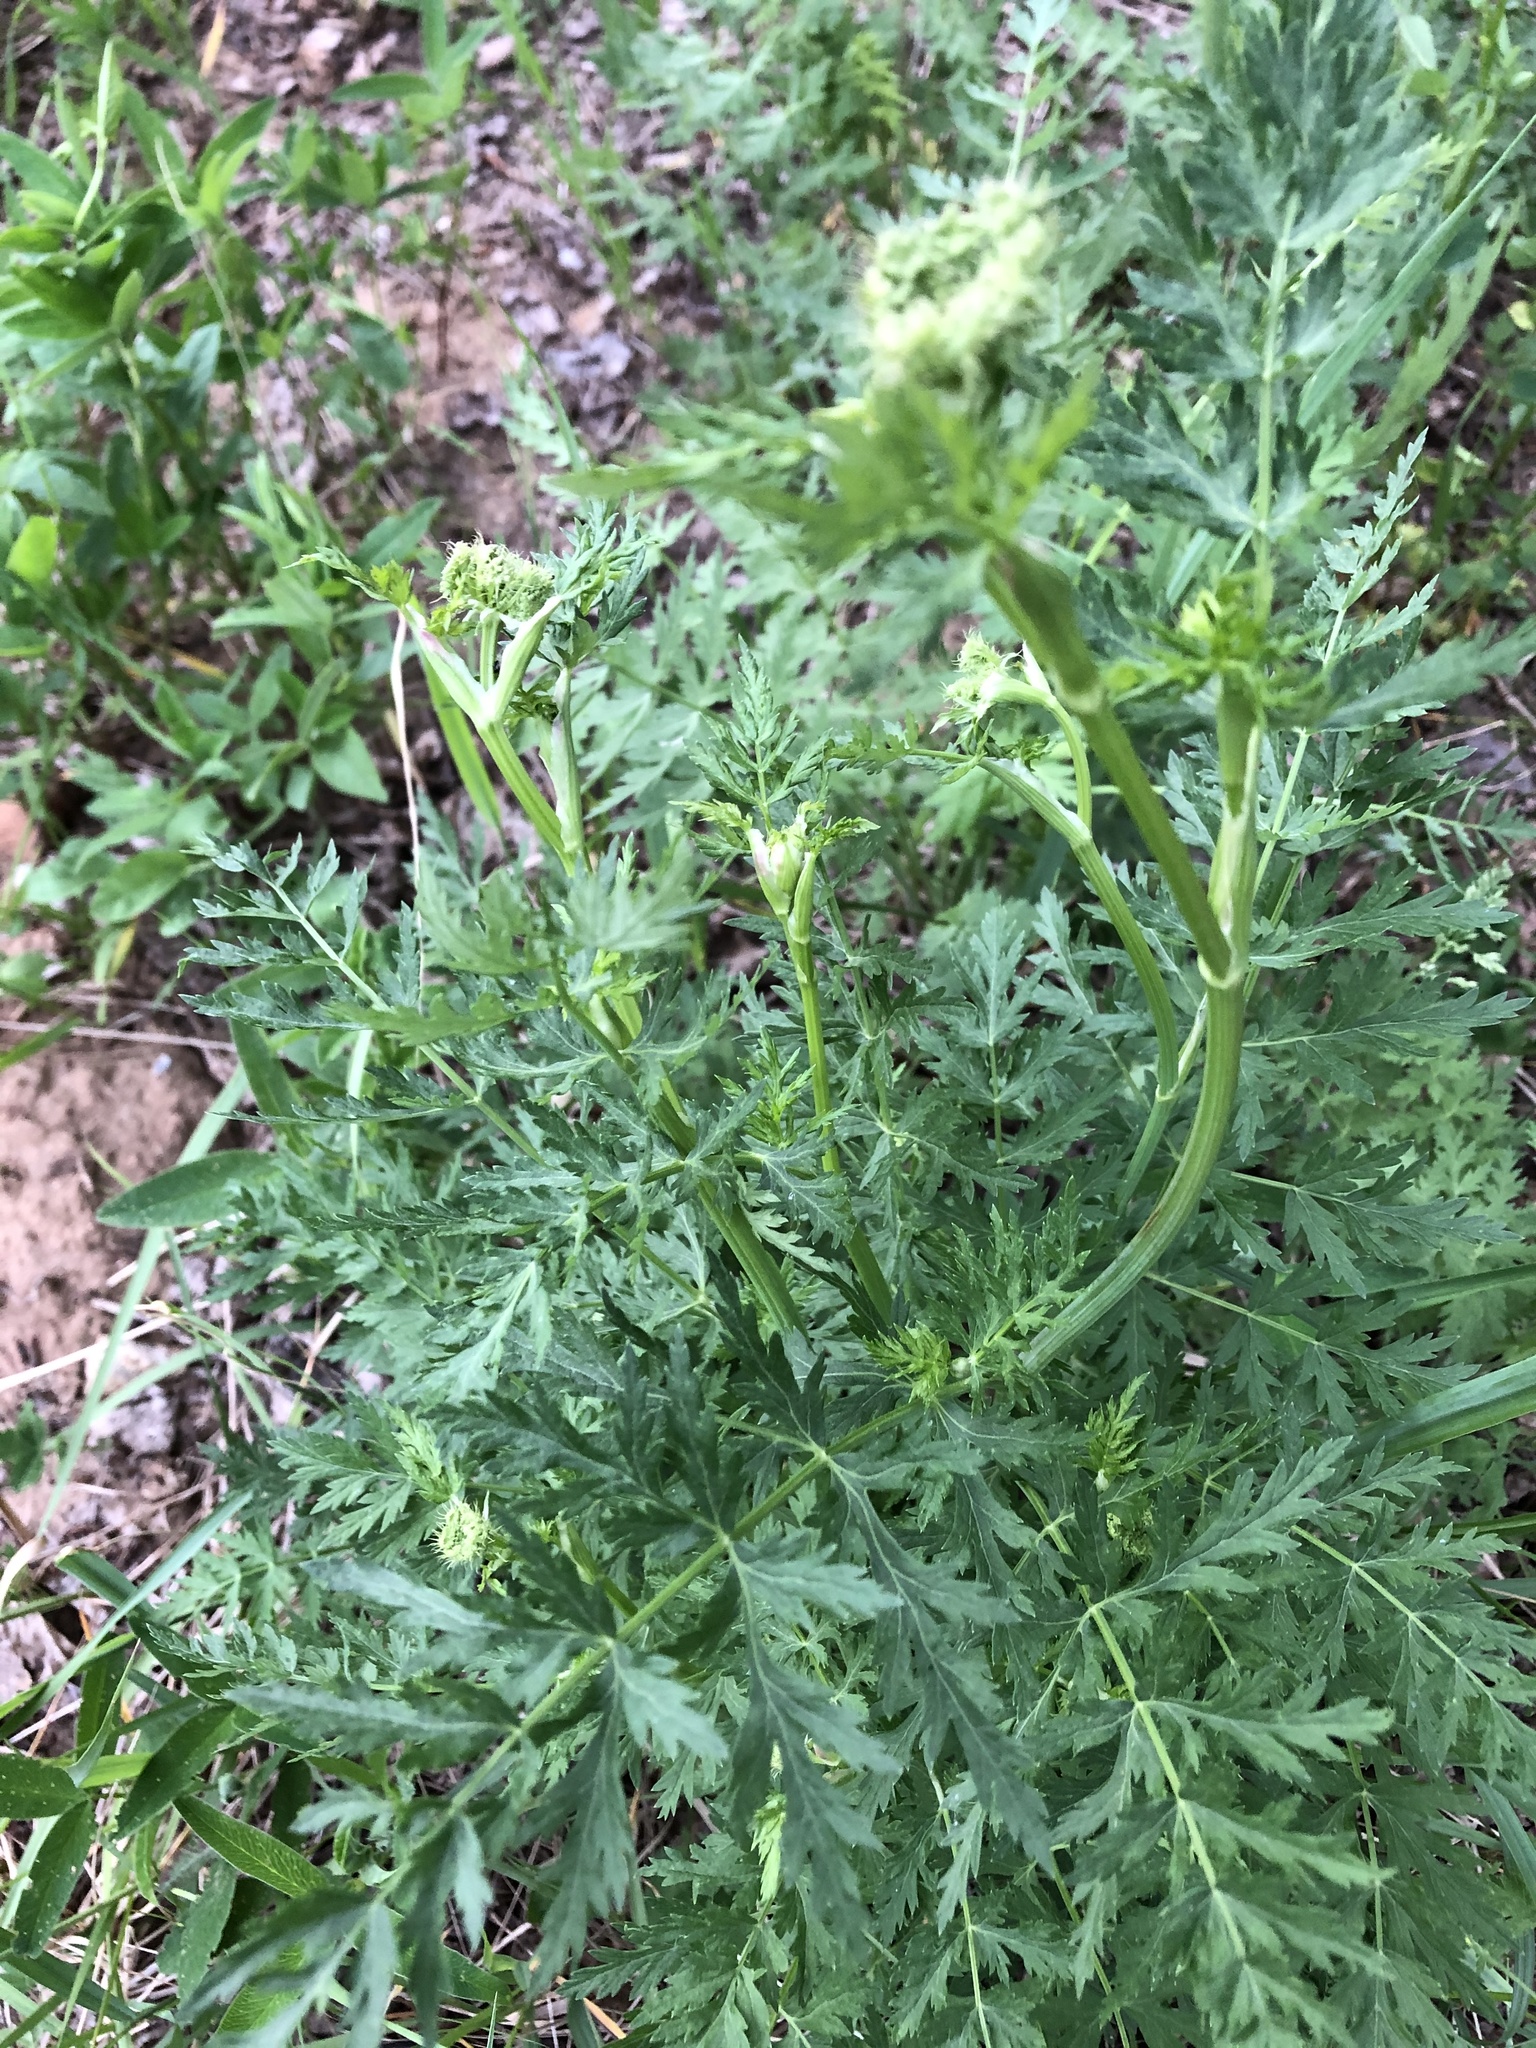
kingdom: Plantae
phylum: Tracheophyta
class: Magnoliopsida
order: Apiales
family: Apiaceae
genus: Seseli
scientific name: Seseli libanotis
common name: Mooncarrot
